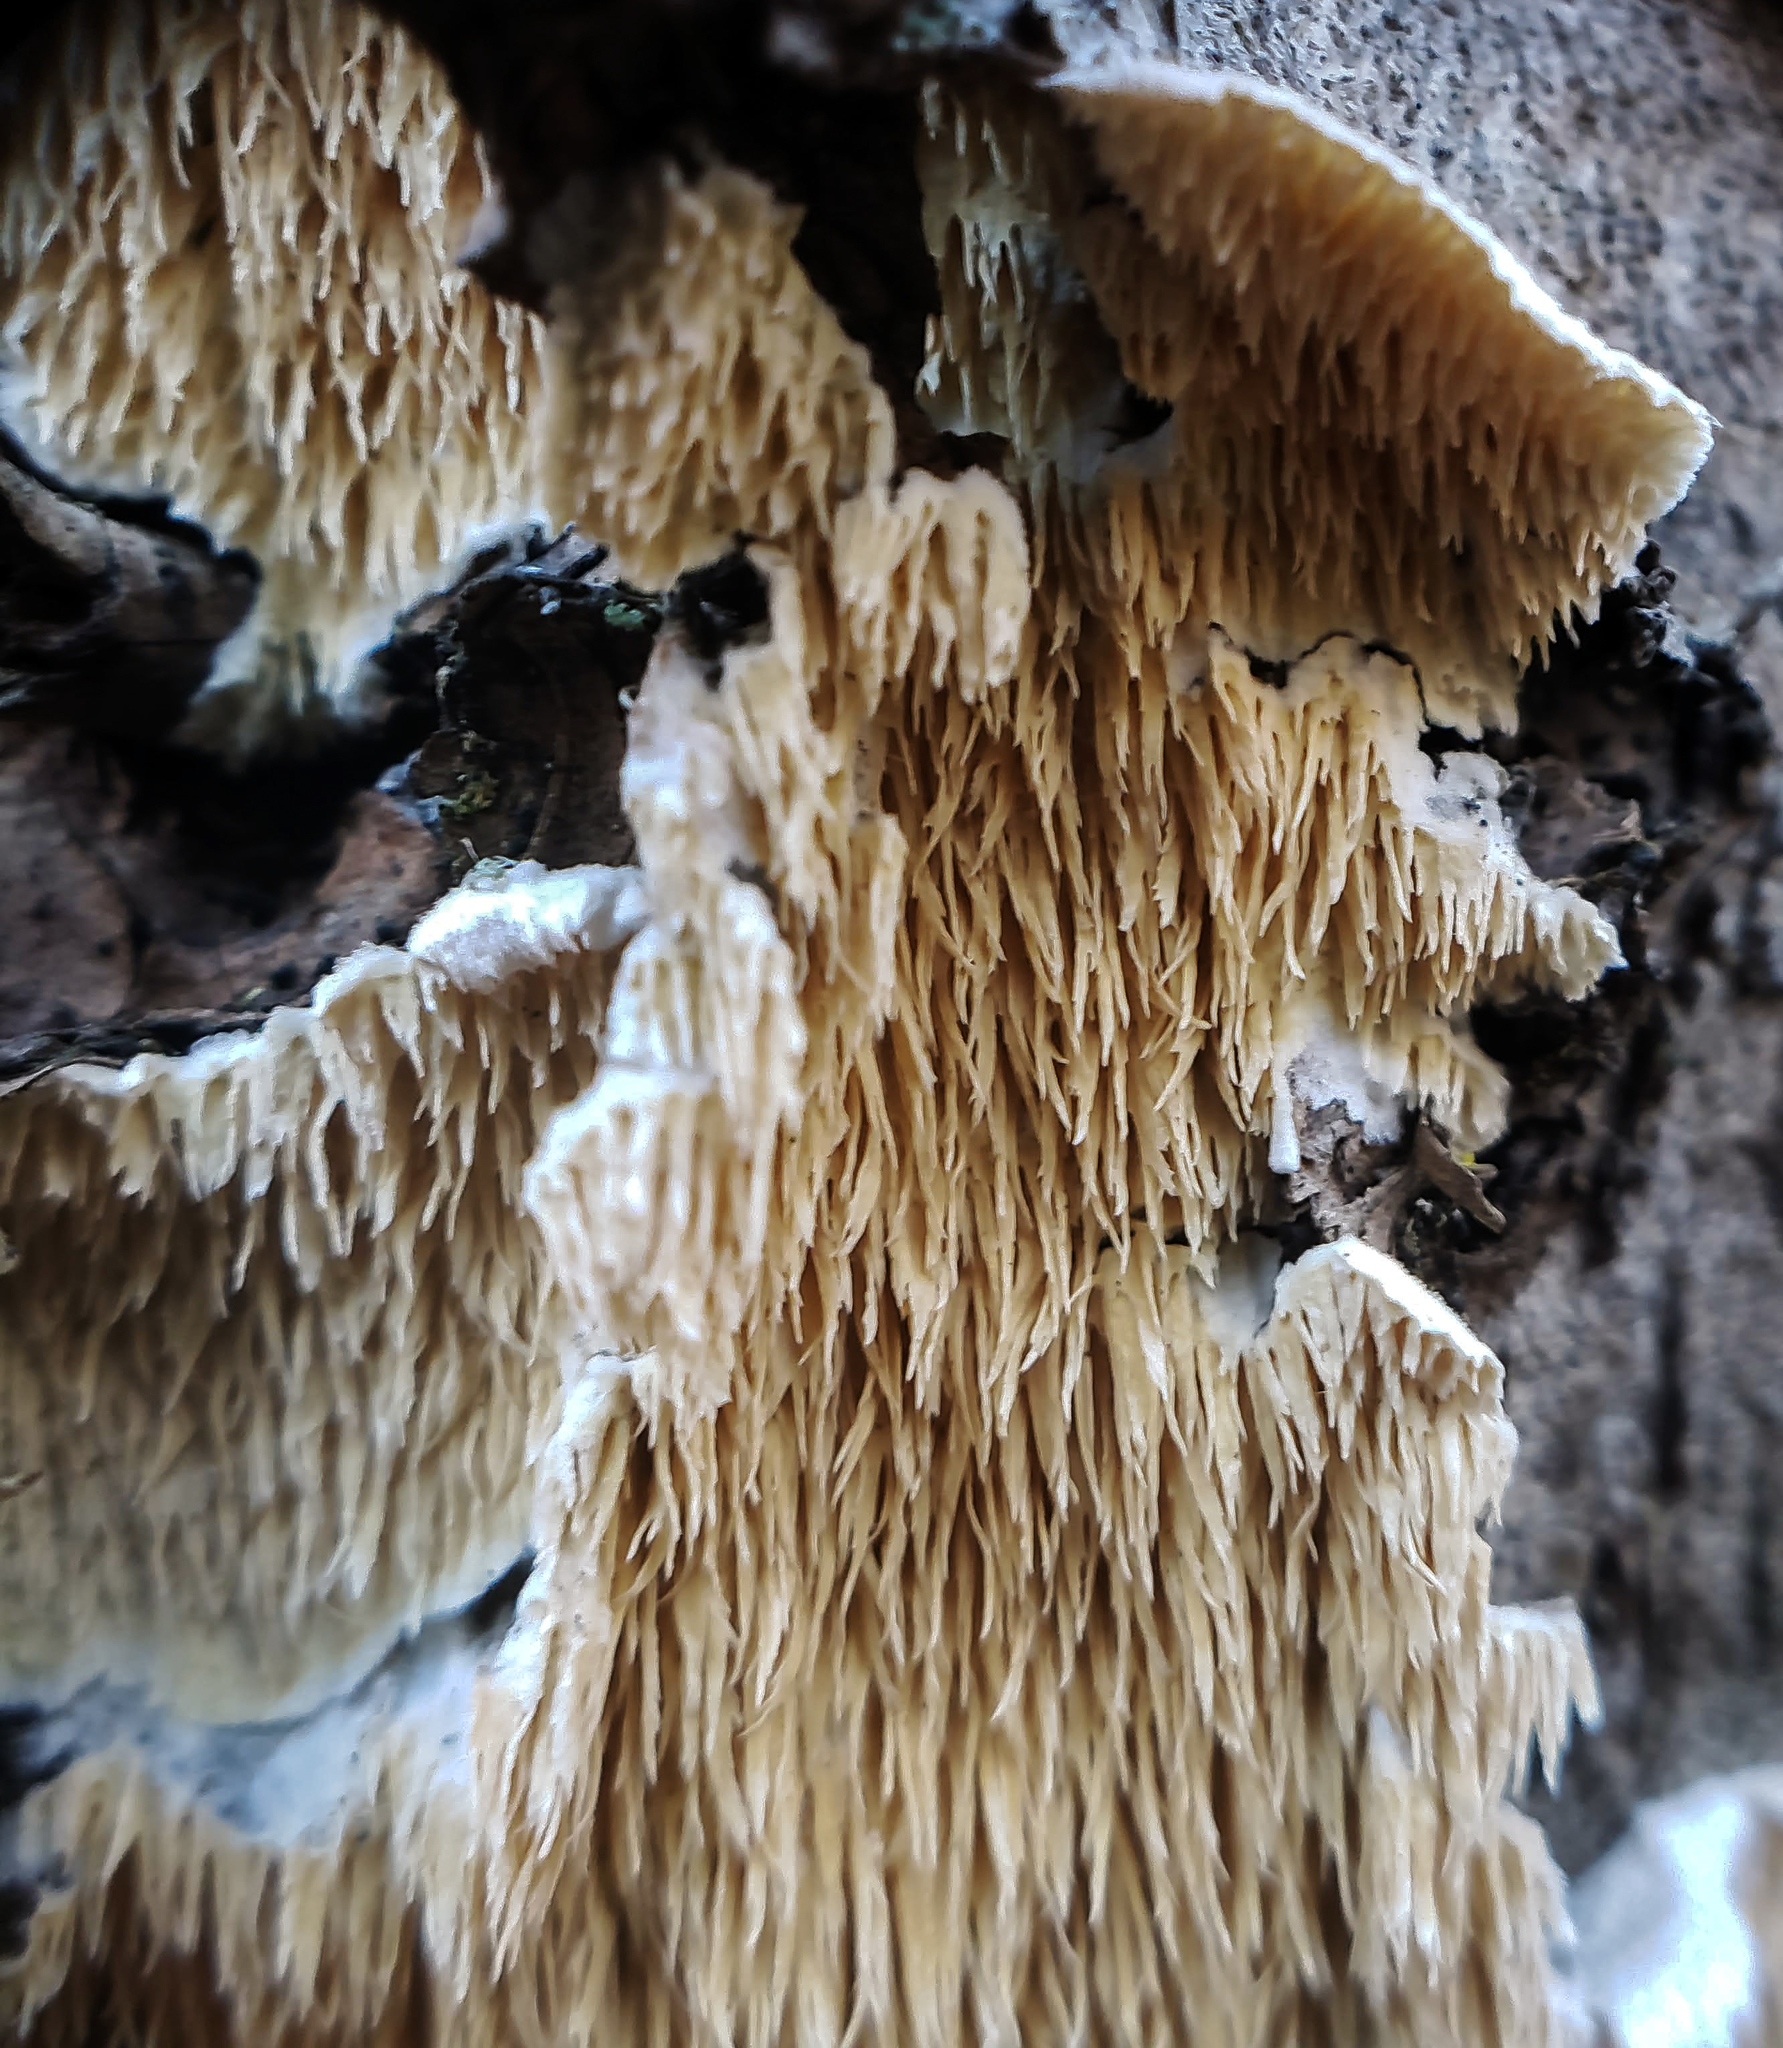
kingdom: Fungi
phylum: Basidiomycota
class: Agaricomycetes
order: Polyporales
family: Irpicaceae
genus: Irpex
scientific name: Irpex lacteus
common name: Milk-white toothed polypore
